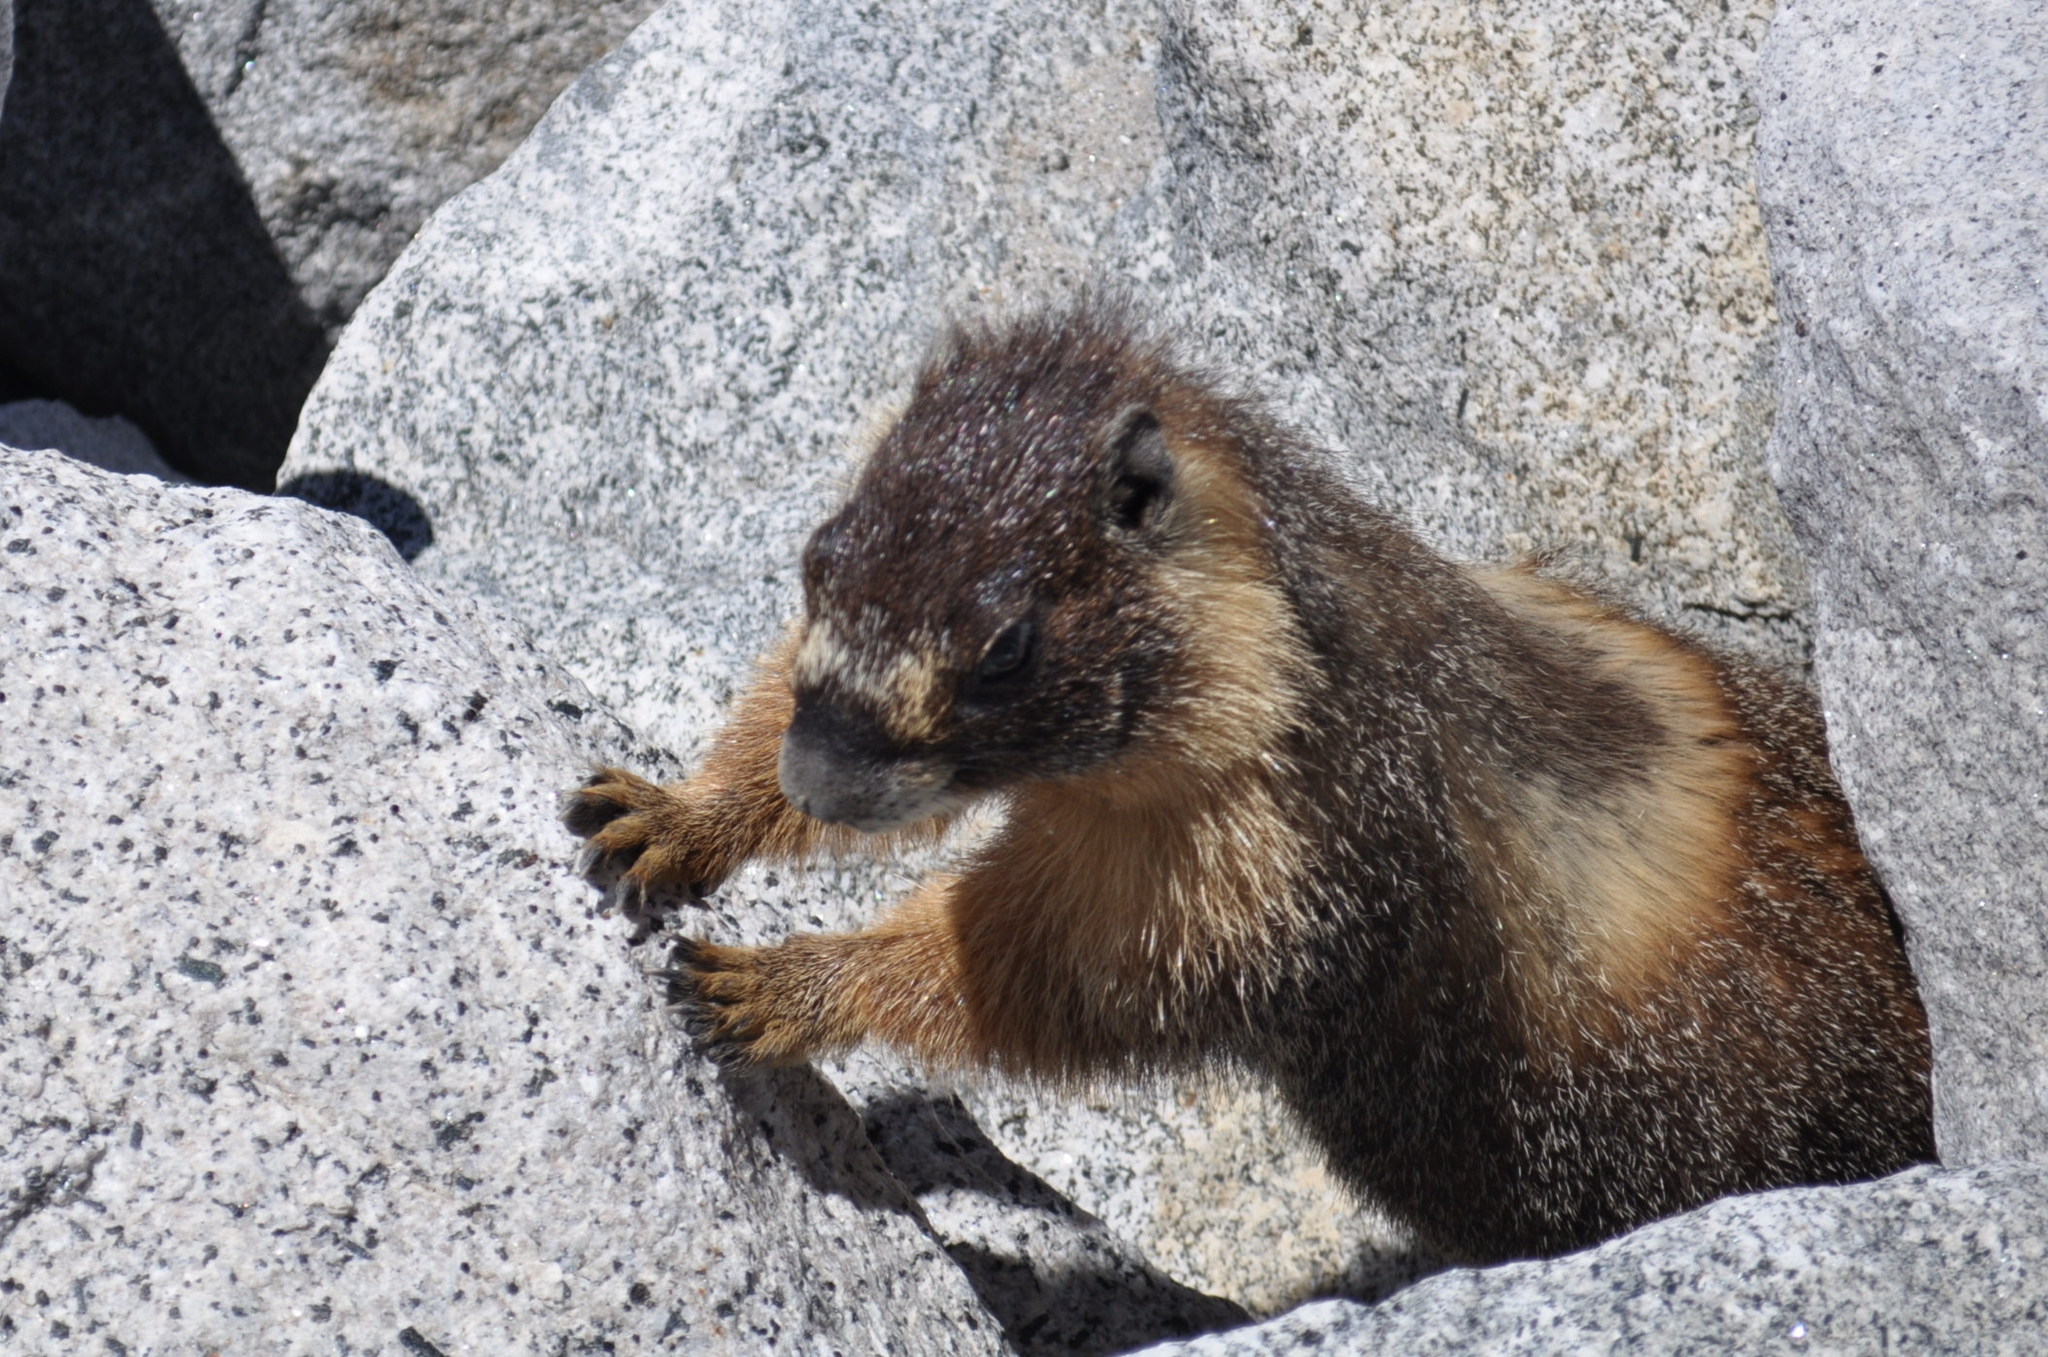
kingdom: Animalia
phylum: Chordata
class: Mammalia
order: Rodentia
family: Sciuridae
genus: Marmota
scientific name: Marmota flaviventris
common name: Yellow-bellied marmot
